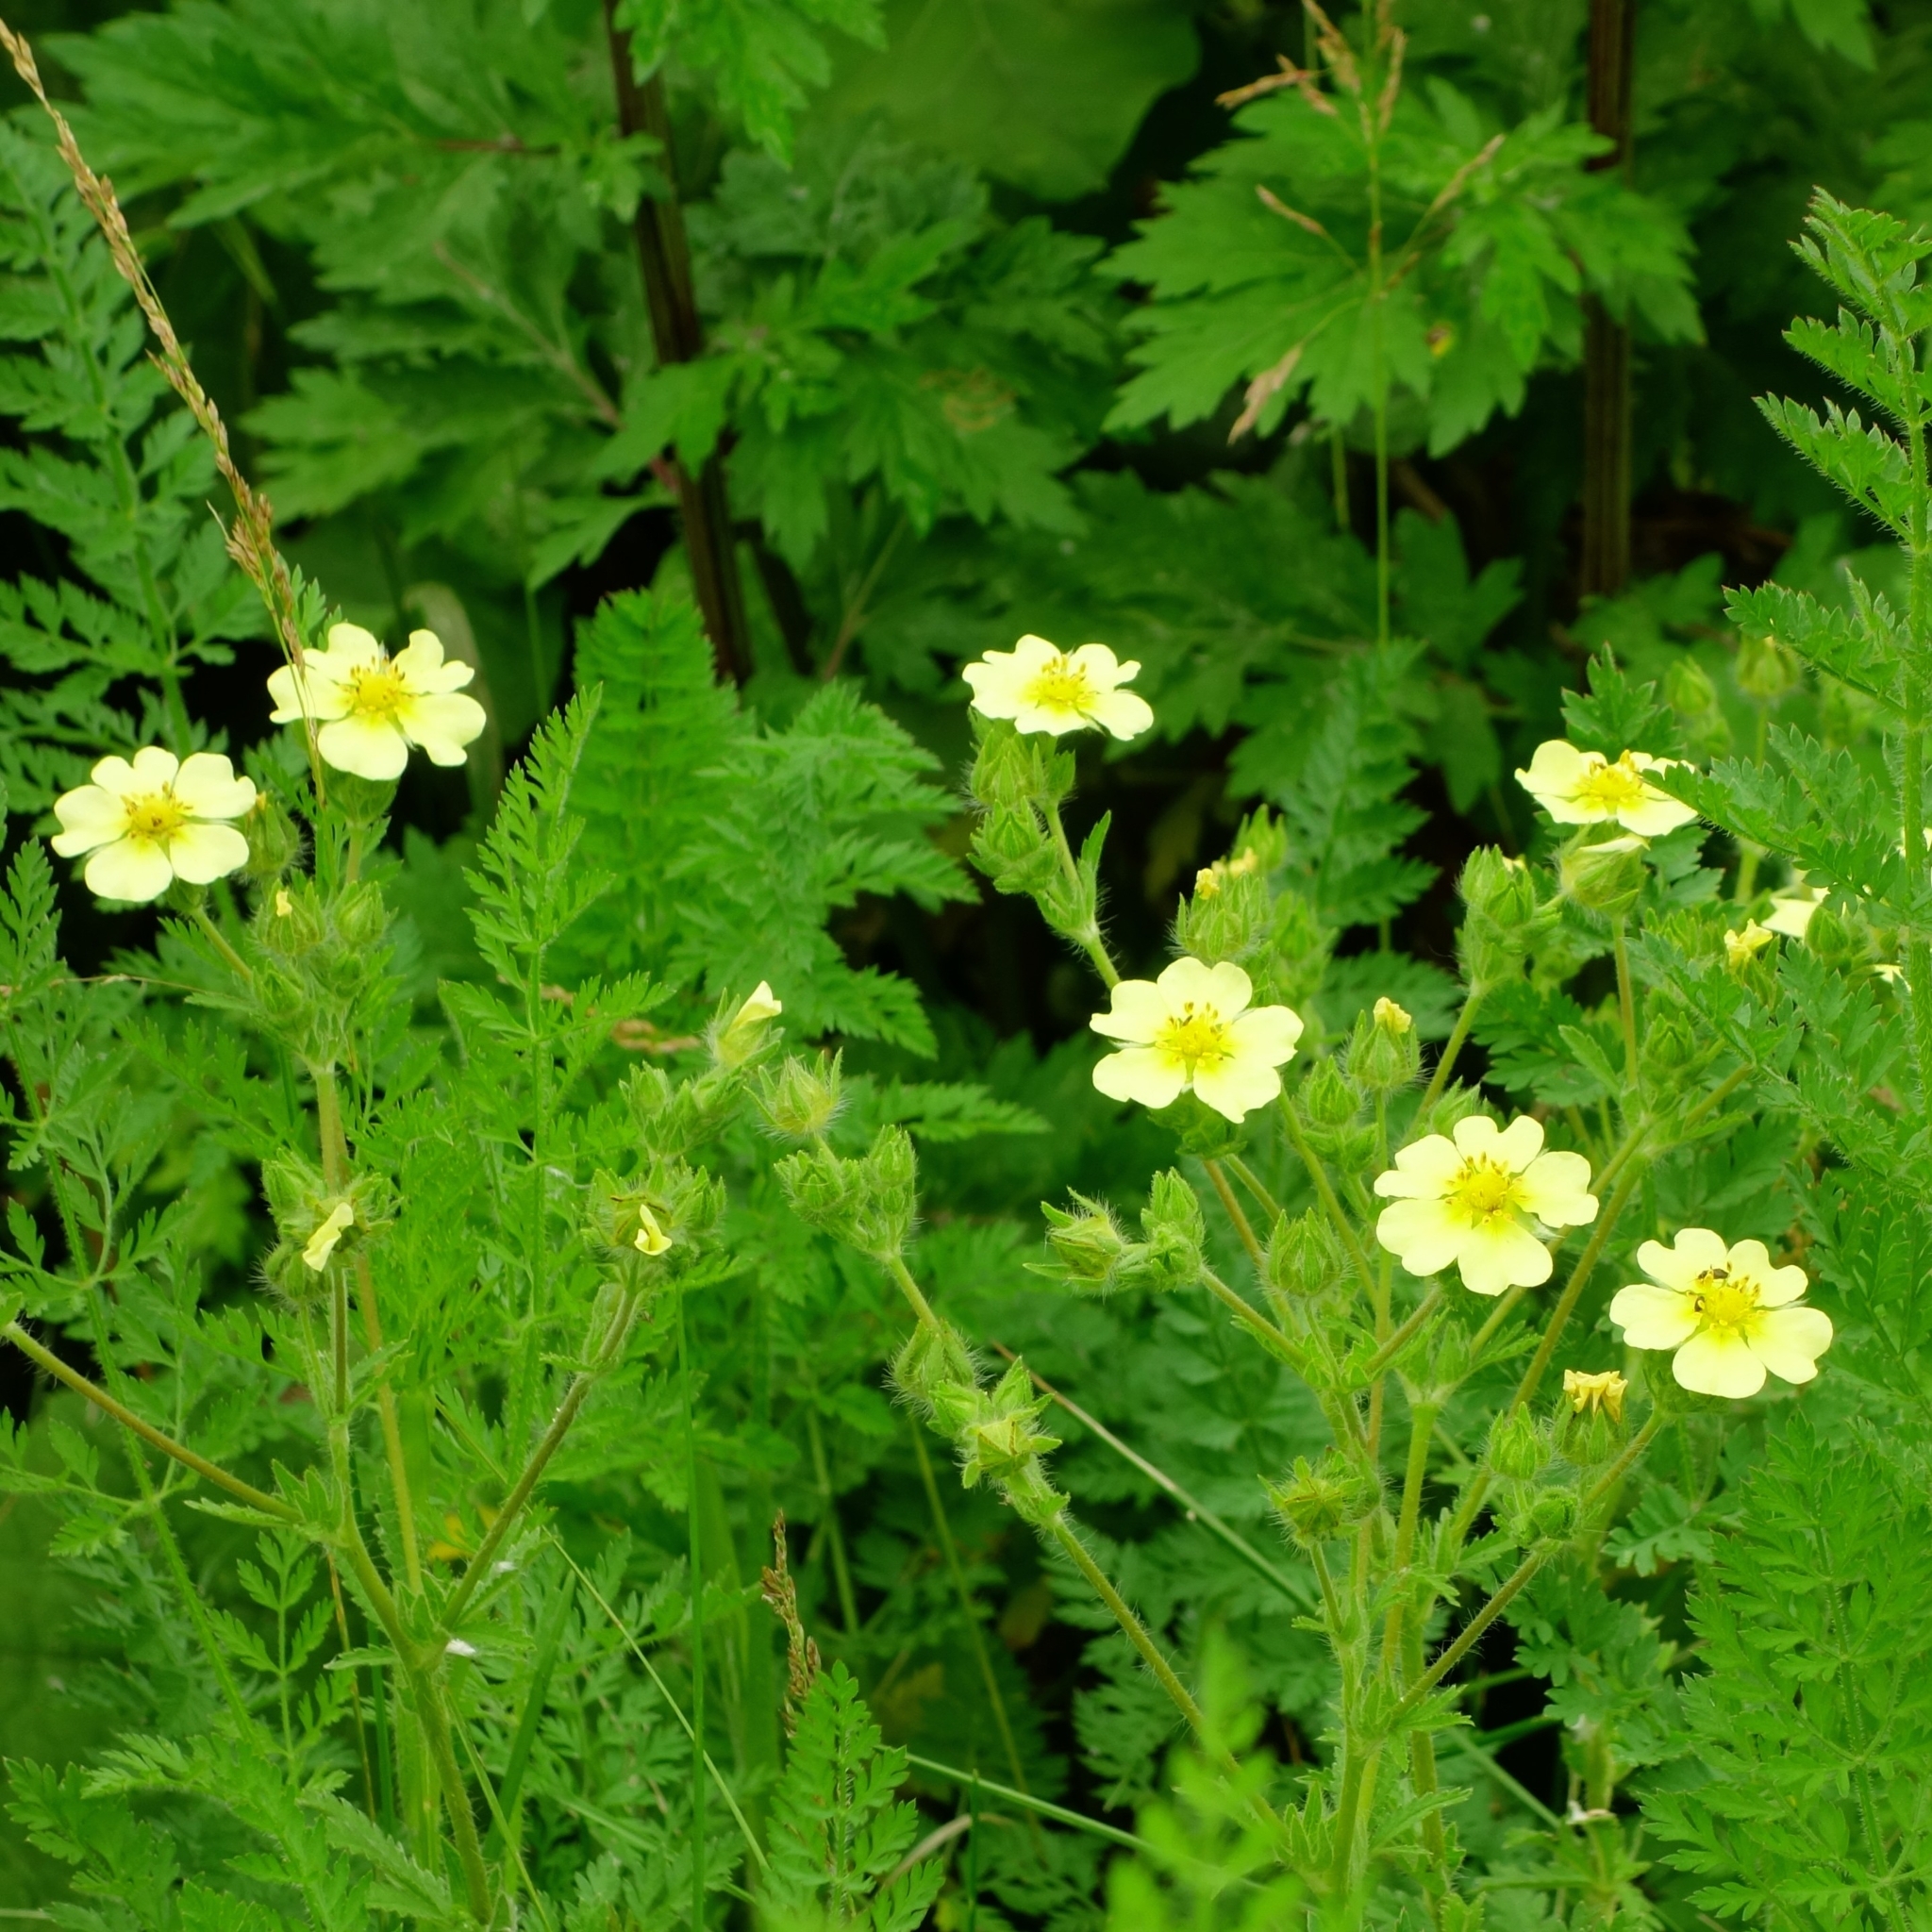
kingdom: Plantae
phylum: Tracheophyta
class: Magnoliopsida
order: Rosales
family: Rosaceae
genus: Potentilla
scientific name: Potentilla recta
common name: Sulphur cinquefoil
